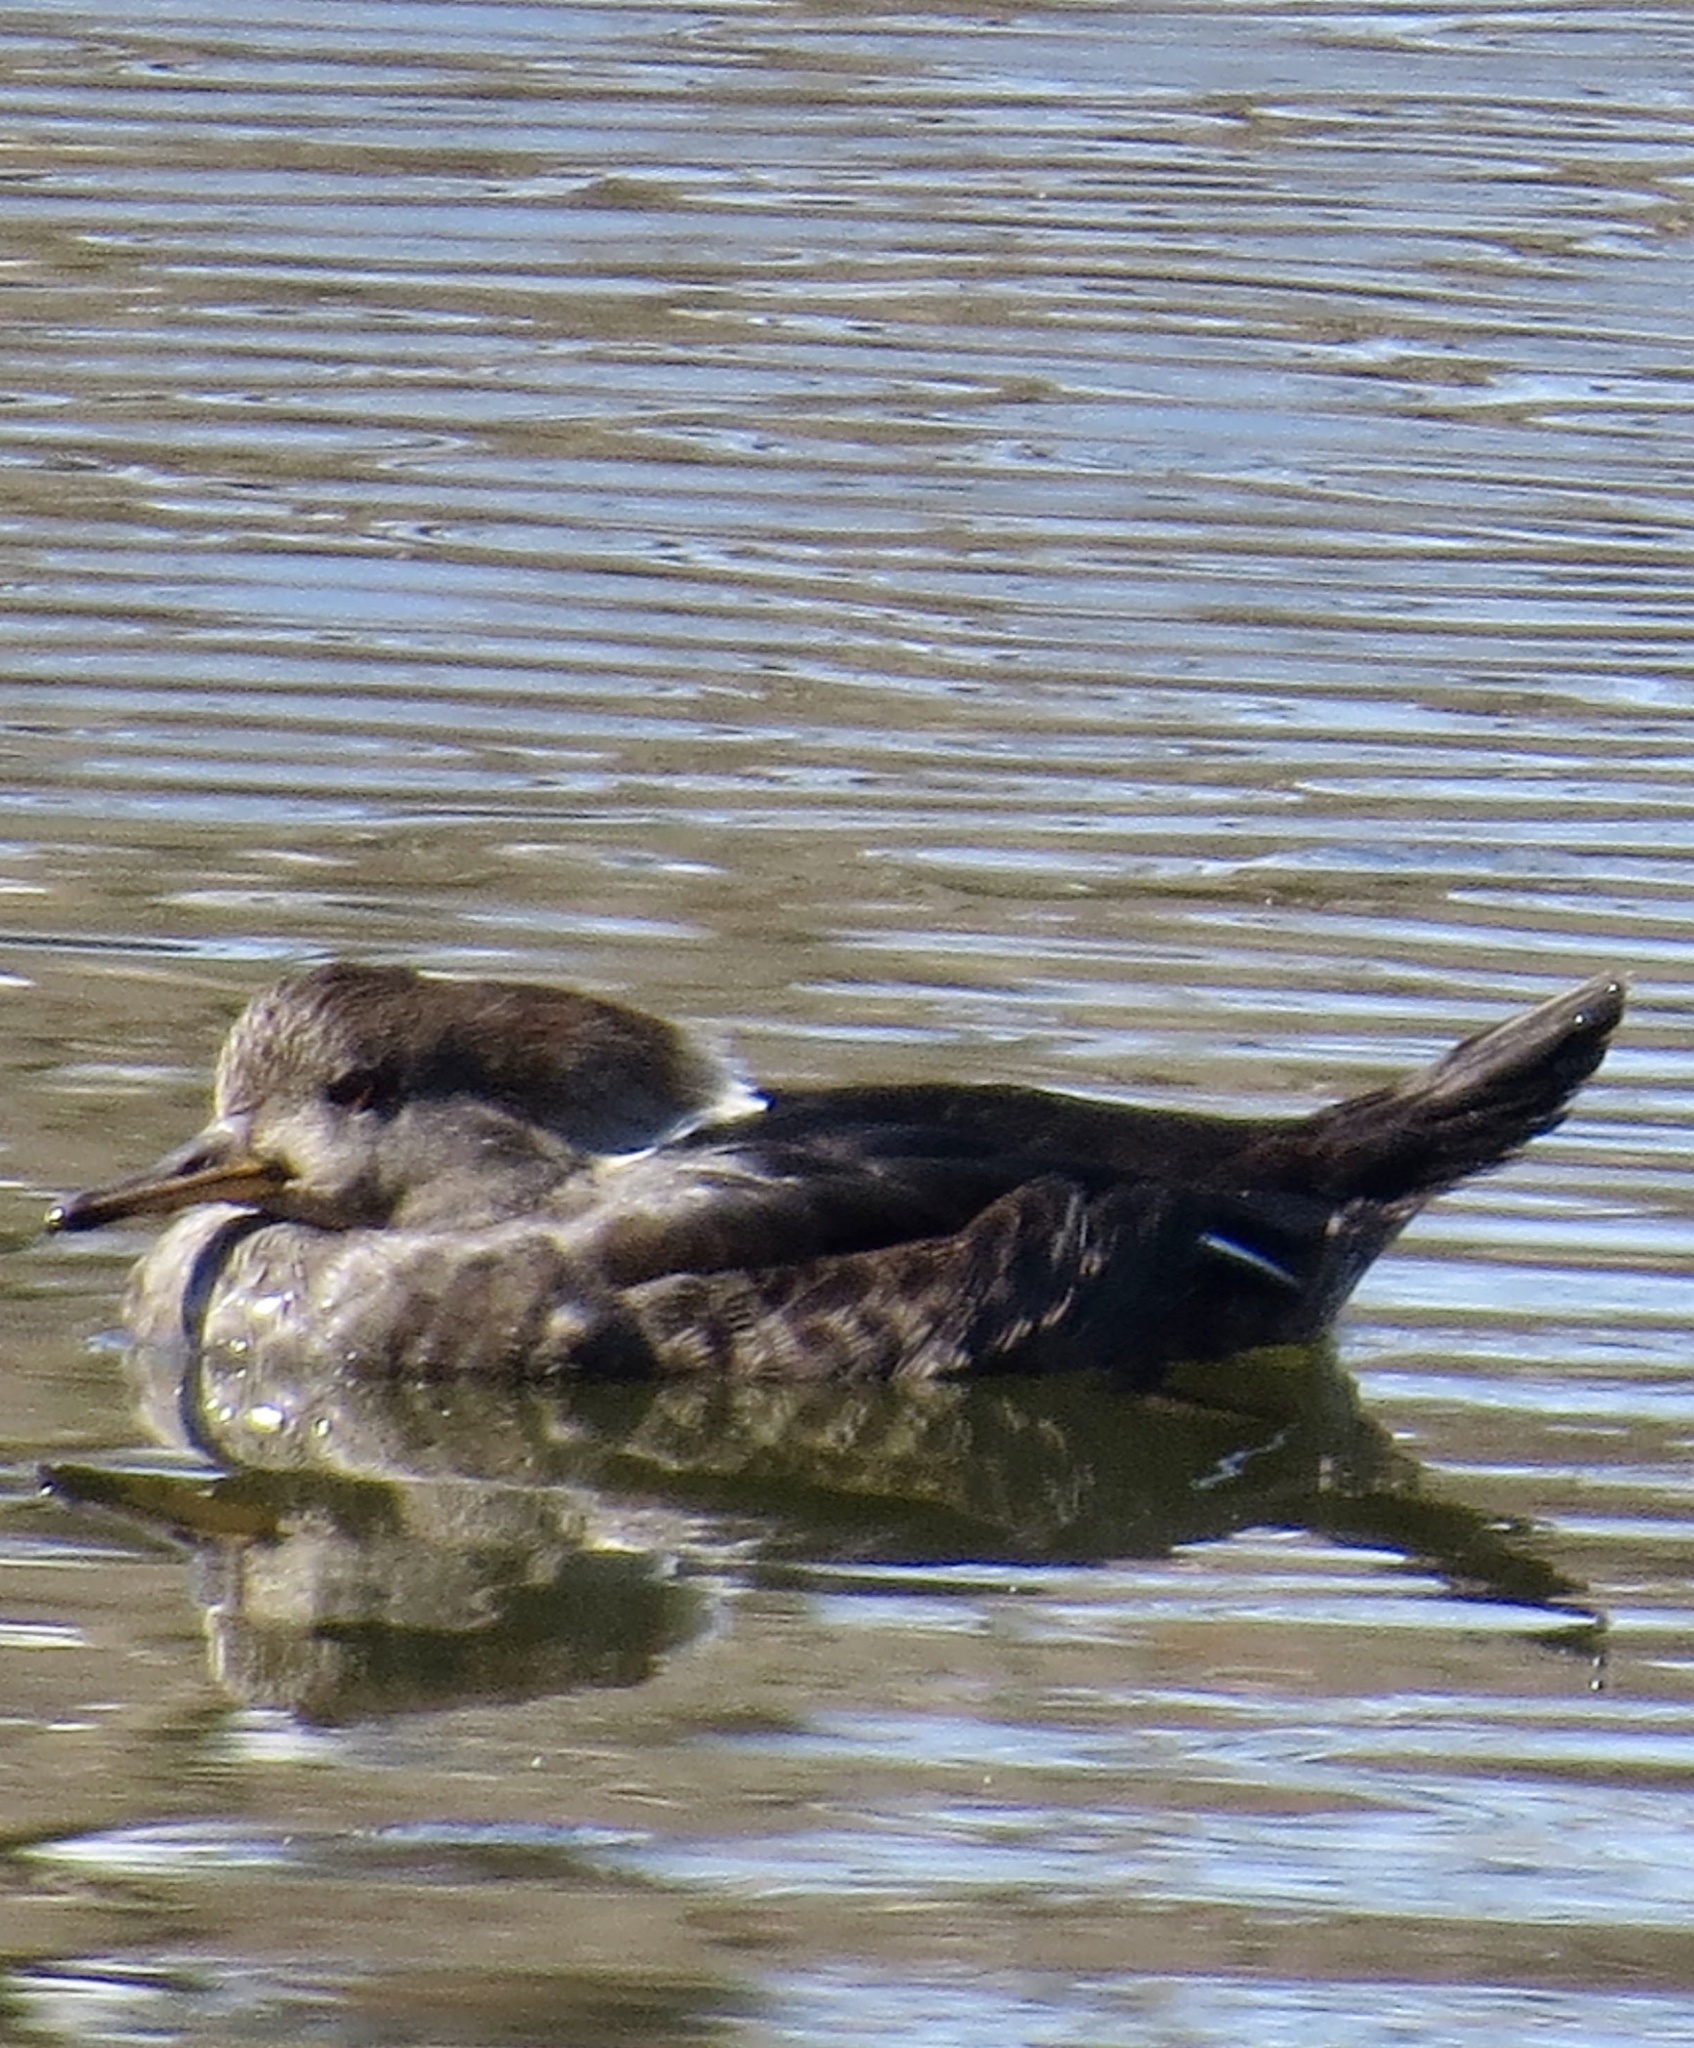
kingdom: Animalia
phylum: Chordata
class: Aves
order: Anseriformes
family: Anatidae
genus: Lophodytes
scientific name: Lophodytes cucullatus
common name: Hooded merganser
